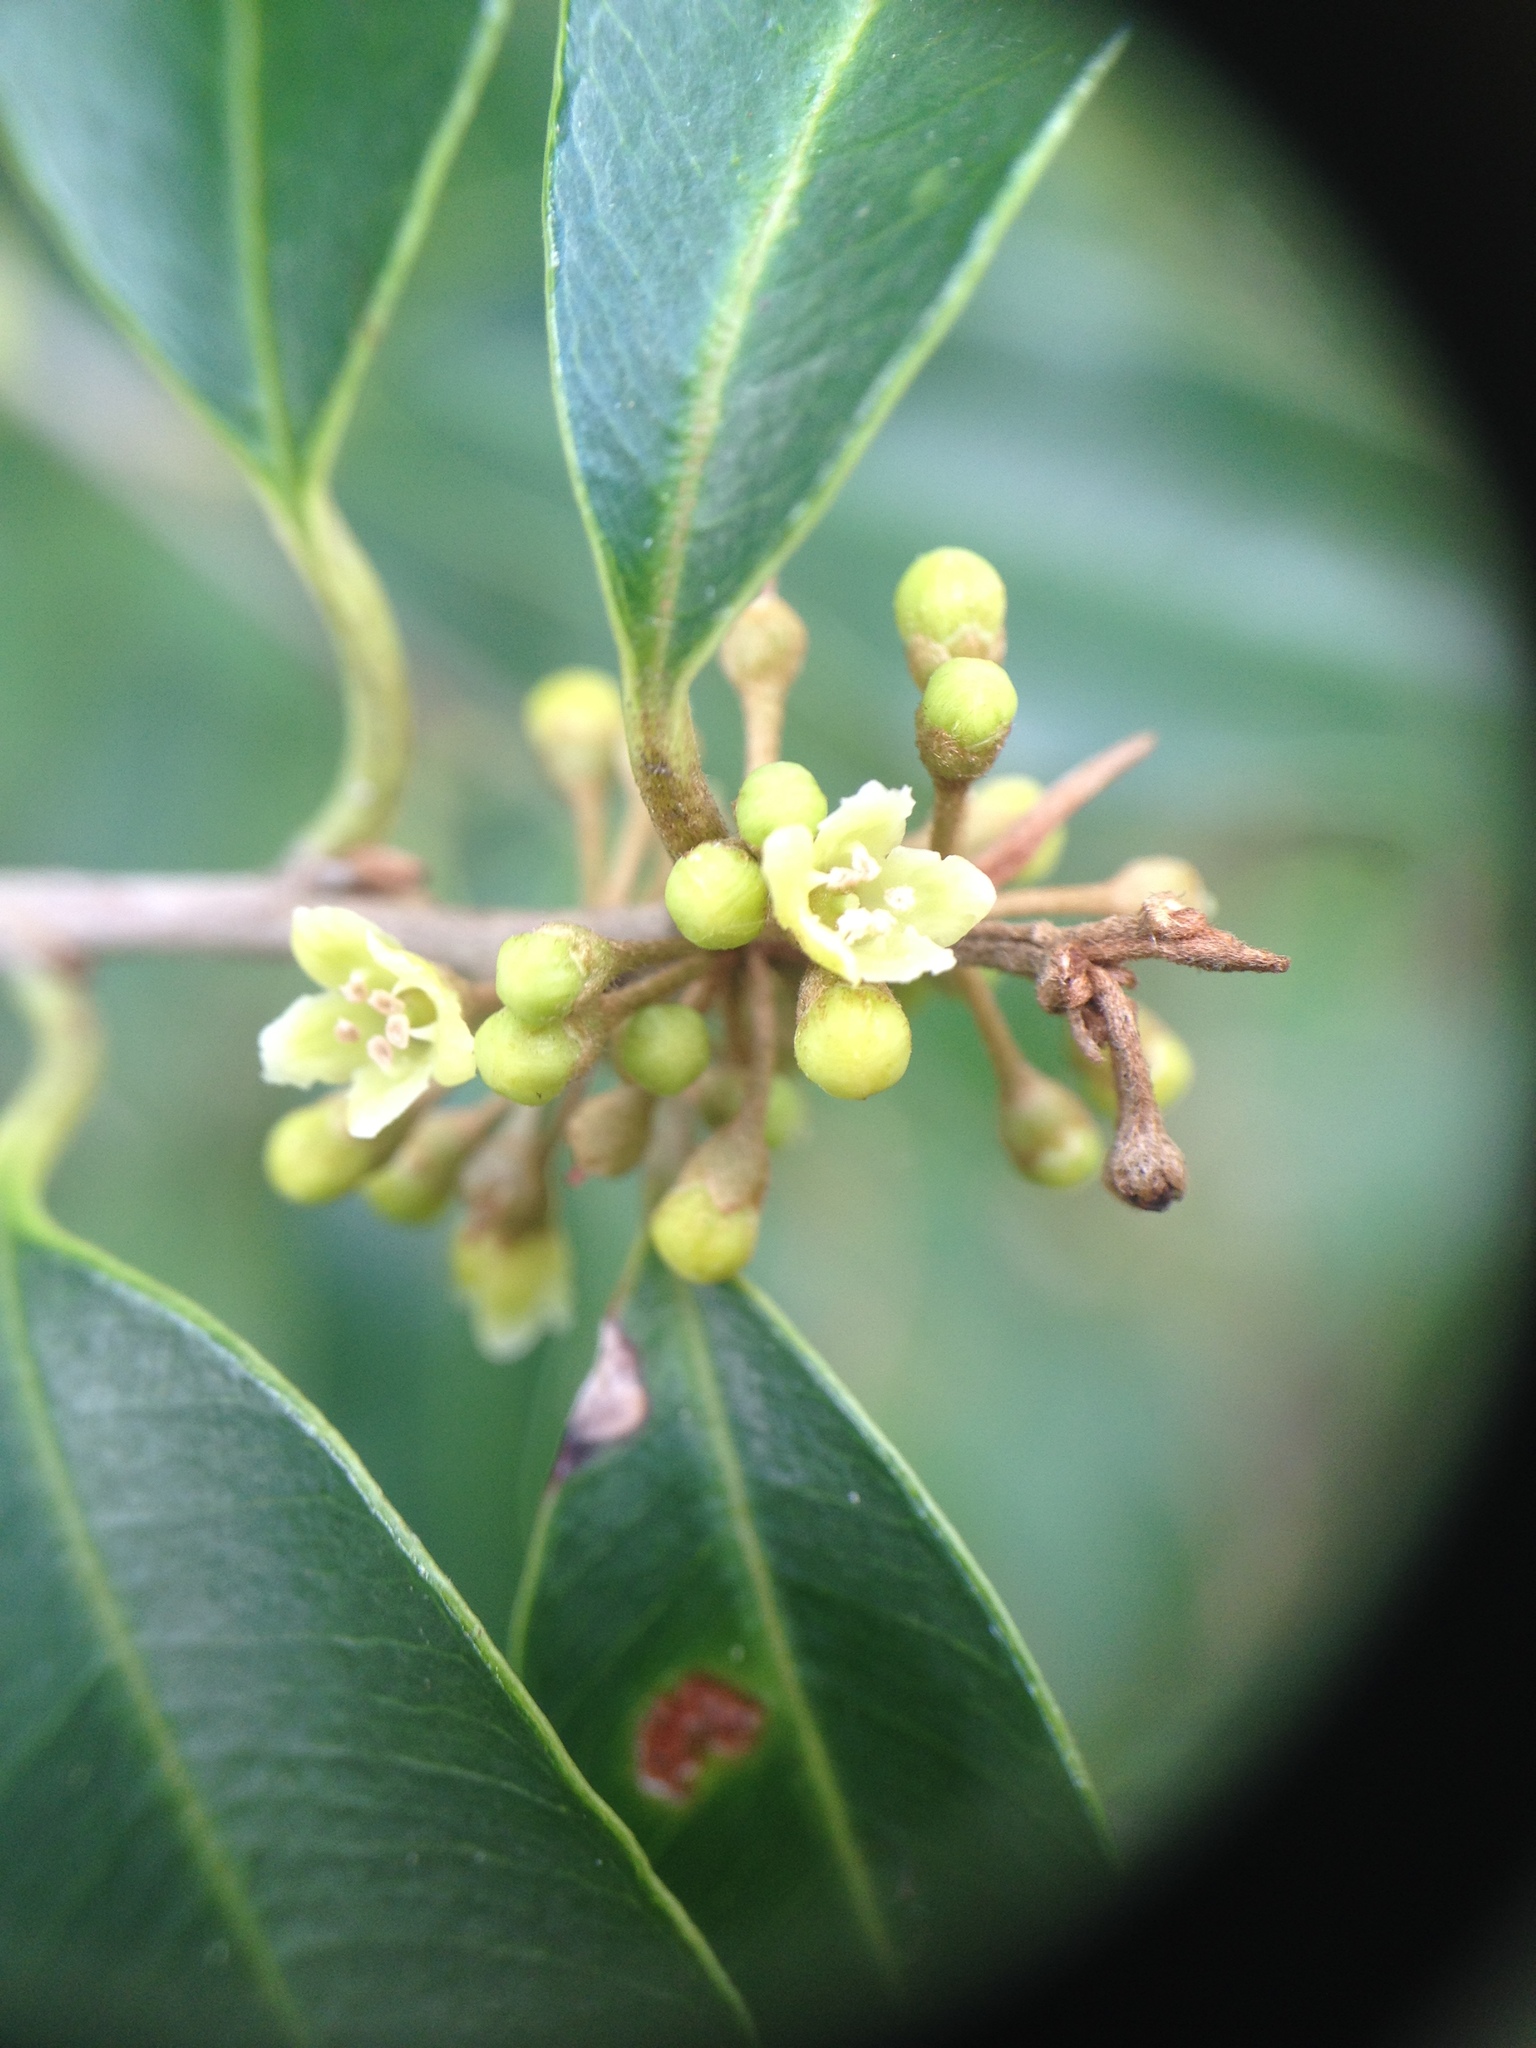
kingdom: Plantae
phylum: Tracheophyta
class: Magnoliopsida
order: Ericales
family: Sapotaceae
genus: Chrysophyllum
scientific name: Chrysophyllum marginatum
